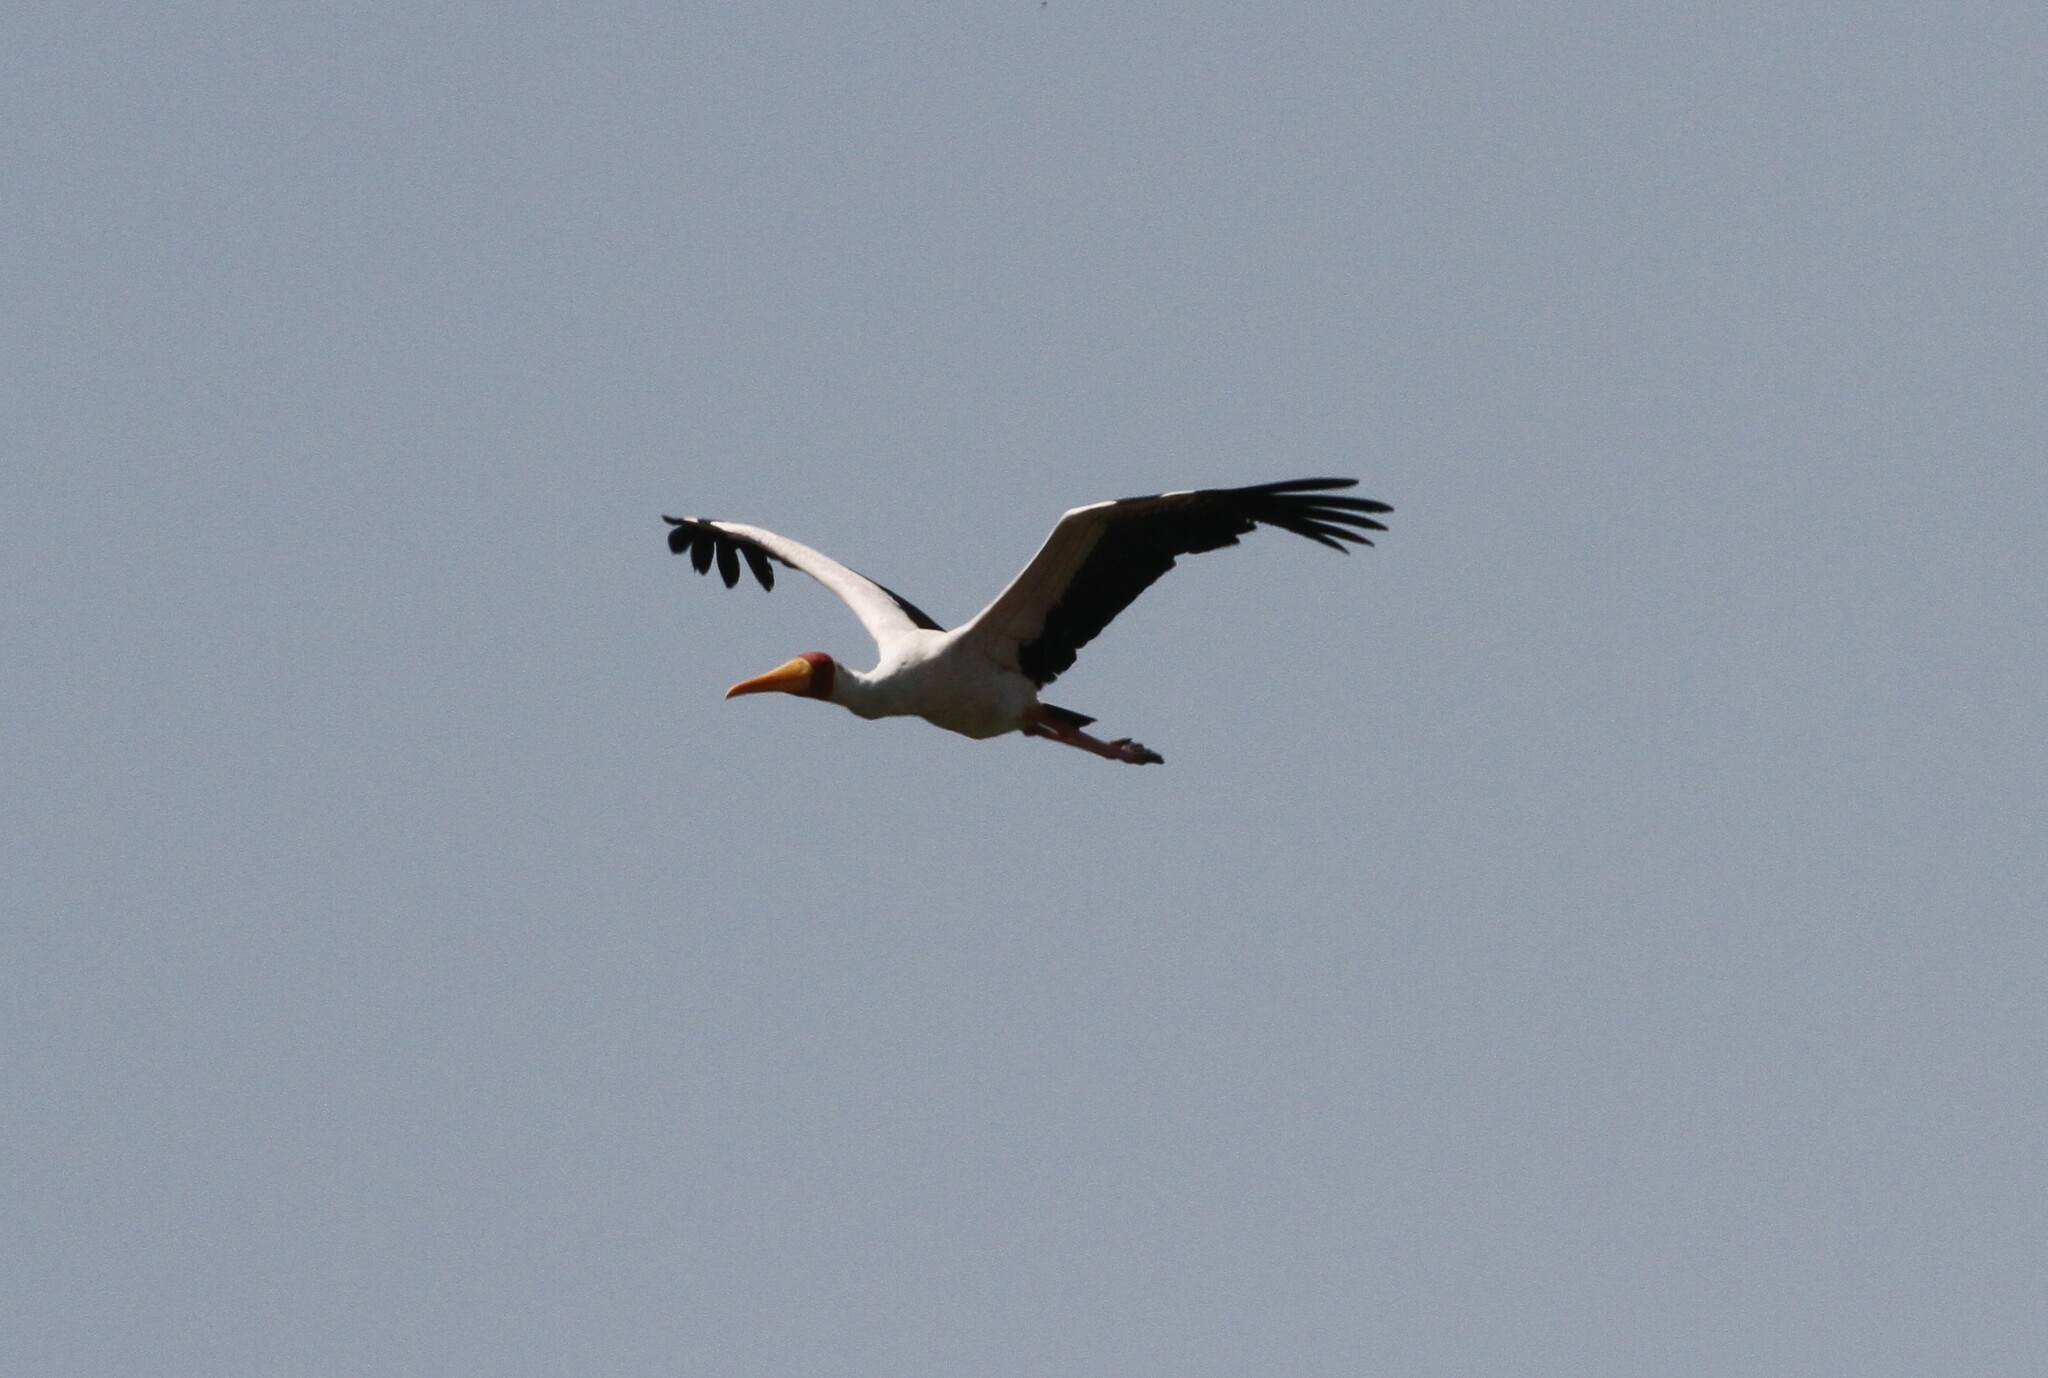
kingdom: Animalia
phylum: Chordata
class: Aves
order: Ciconiiformes
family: Ciconiidae
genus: Mycteria
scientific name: Mycteria ibis
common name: Yellow-billed stork
